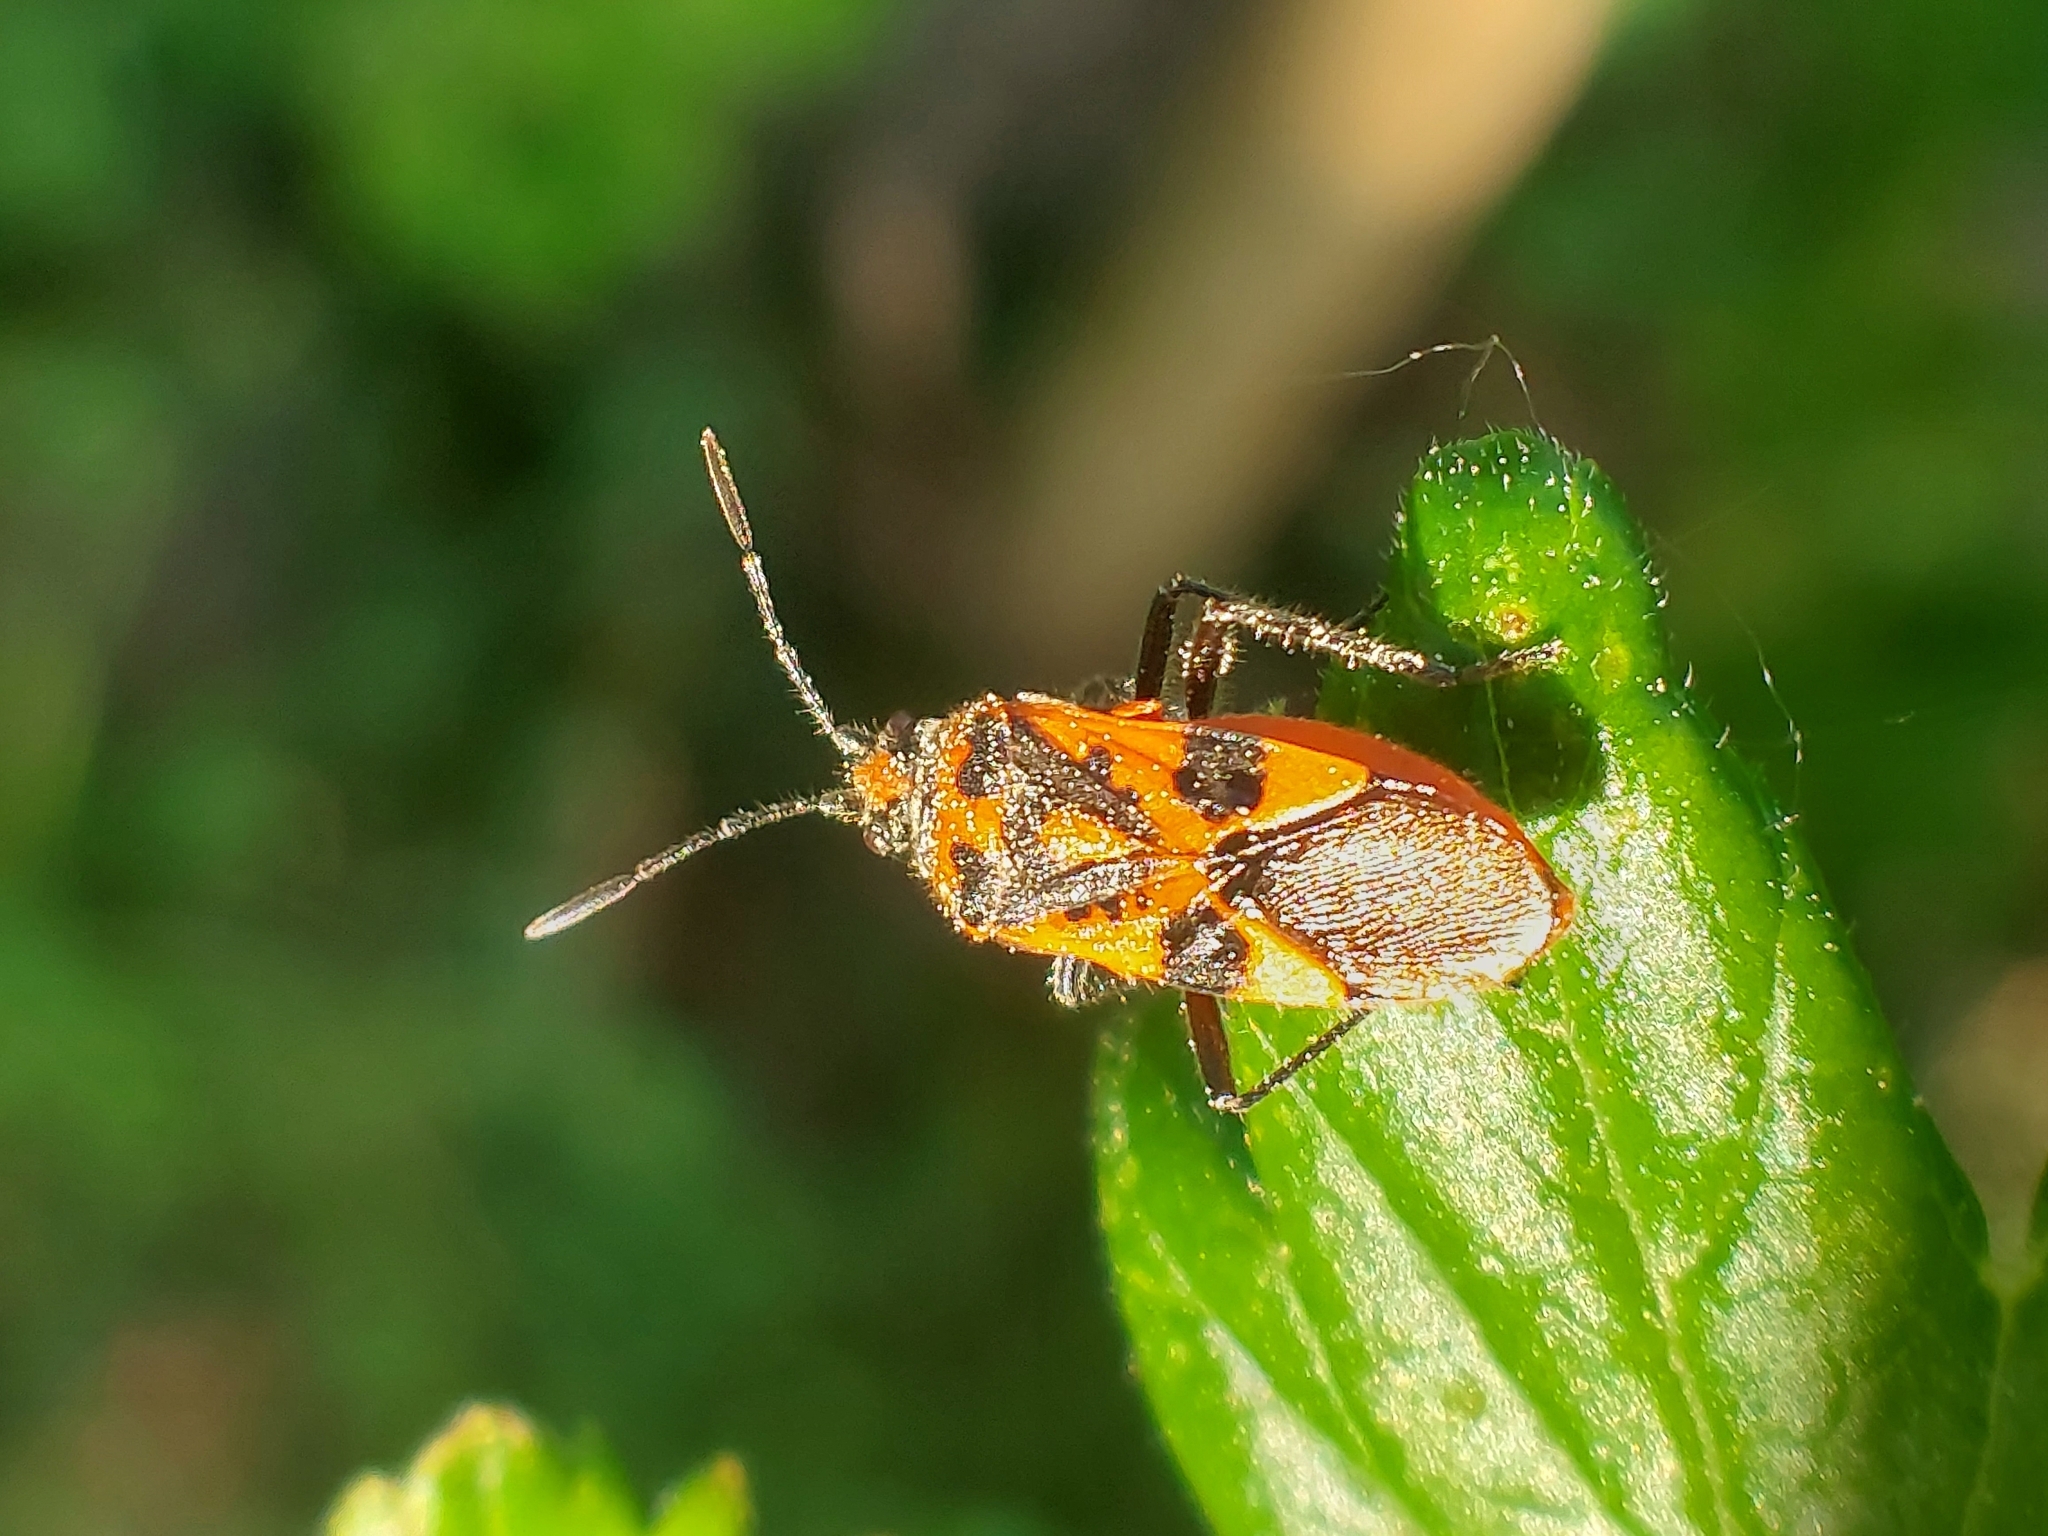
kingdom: Animalia
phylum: Arthropoda
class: Insecta
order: Hemiptera
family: Rhopalidae
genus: Corizus
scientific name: Corizus hyoscyami
